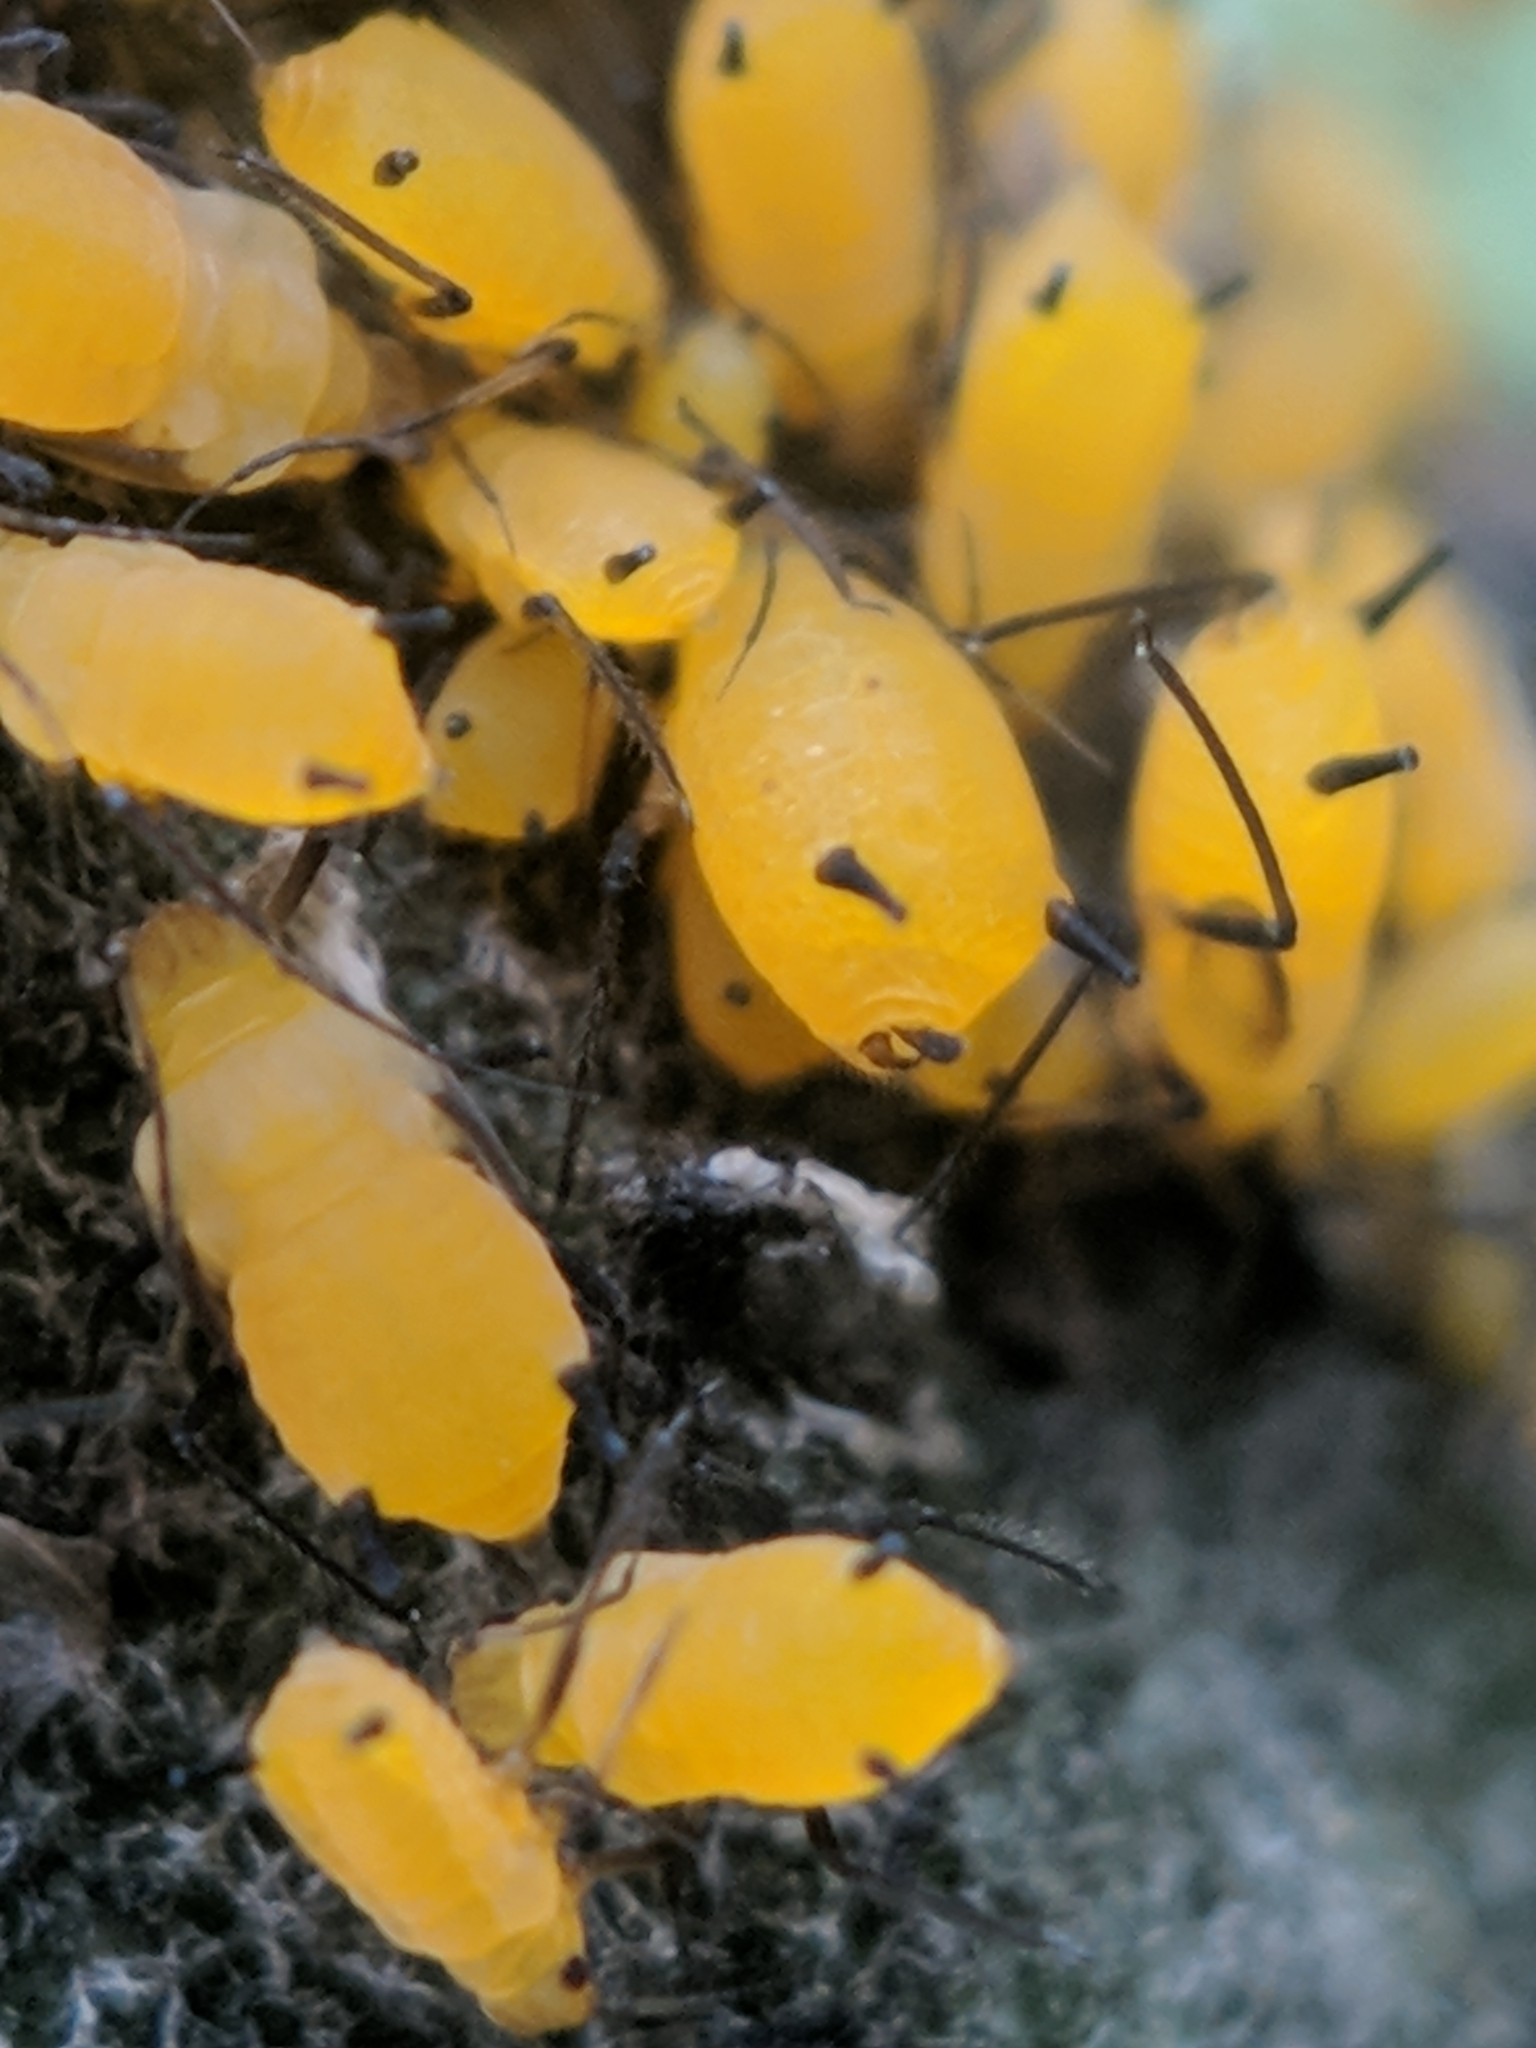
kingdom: Animalia
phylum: Arthropoda
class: Insecta
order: Hemiptera
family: Aphididae
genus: Aphis
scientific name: Aphis nerii
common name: Oleander aphid
